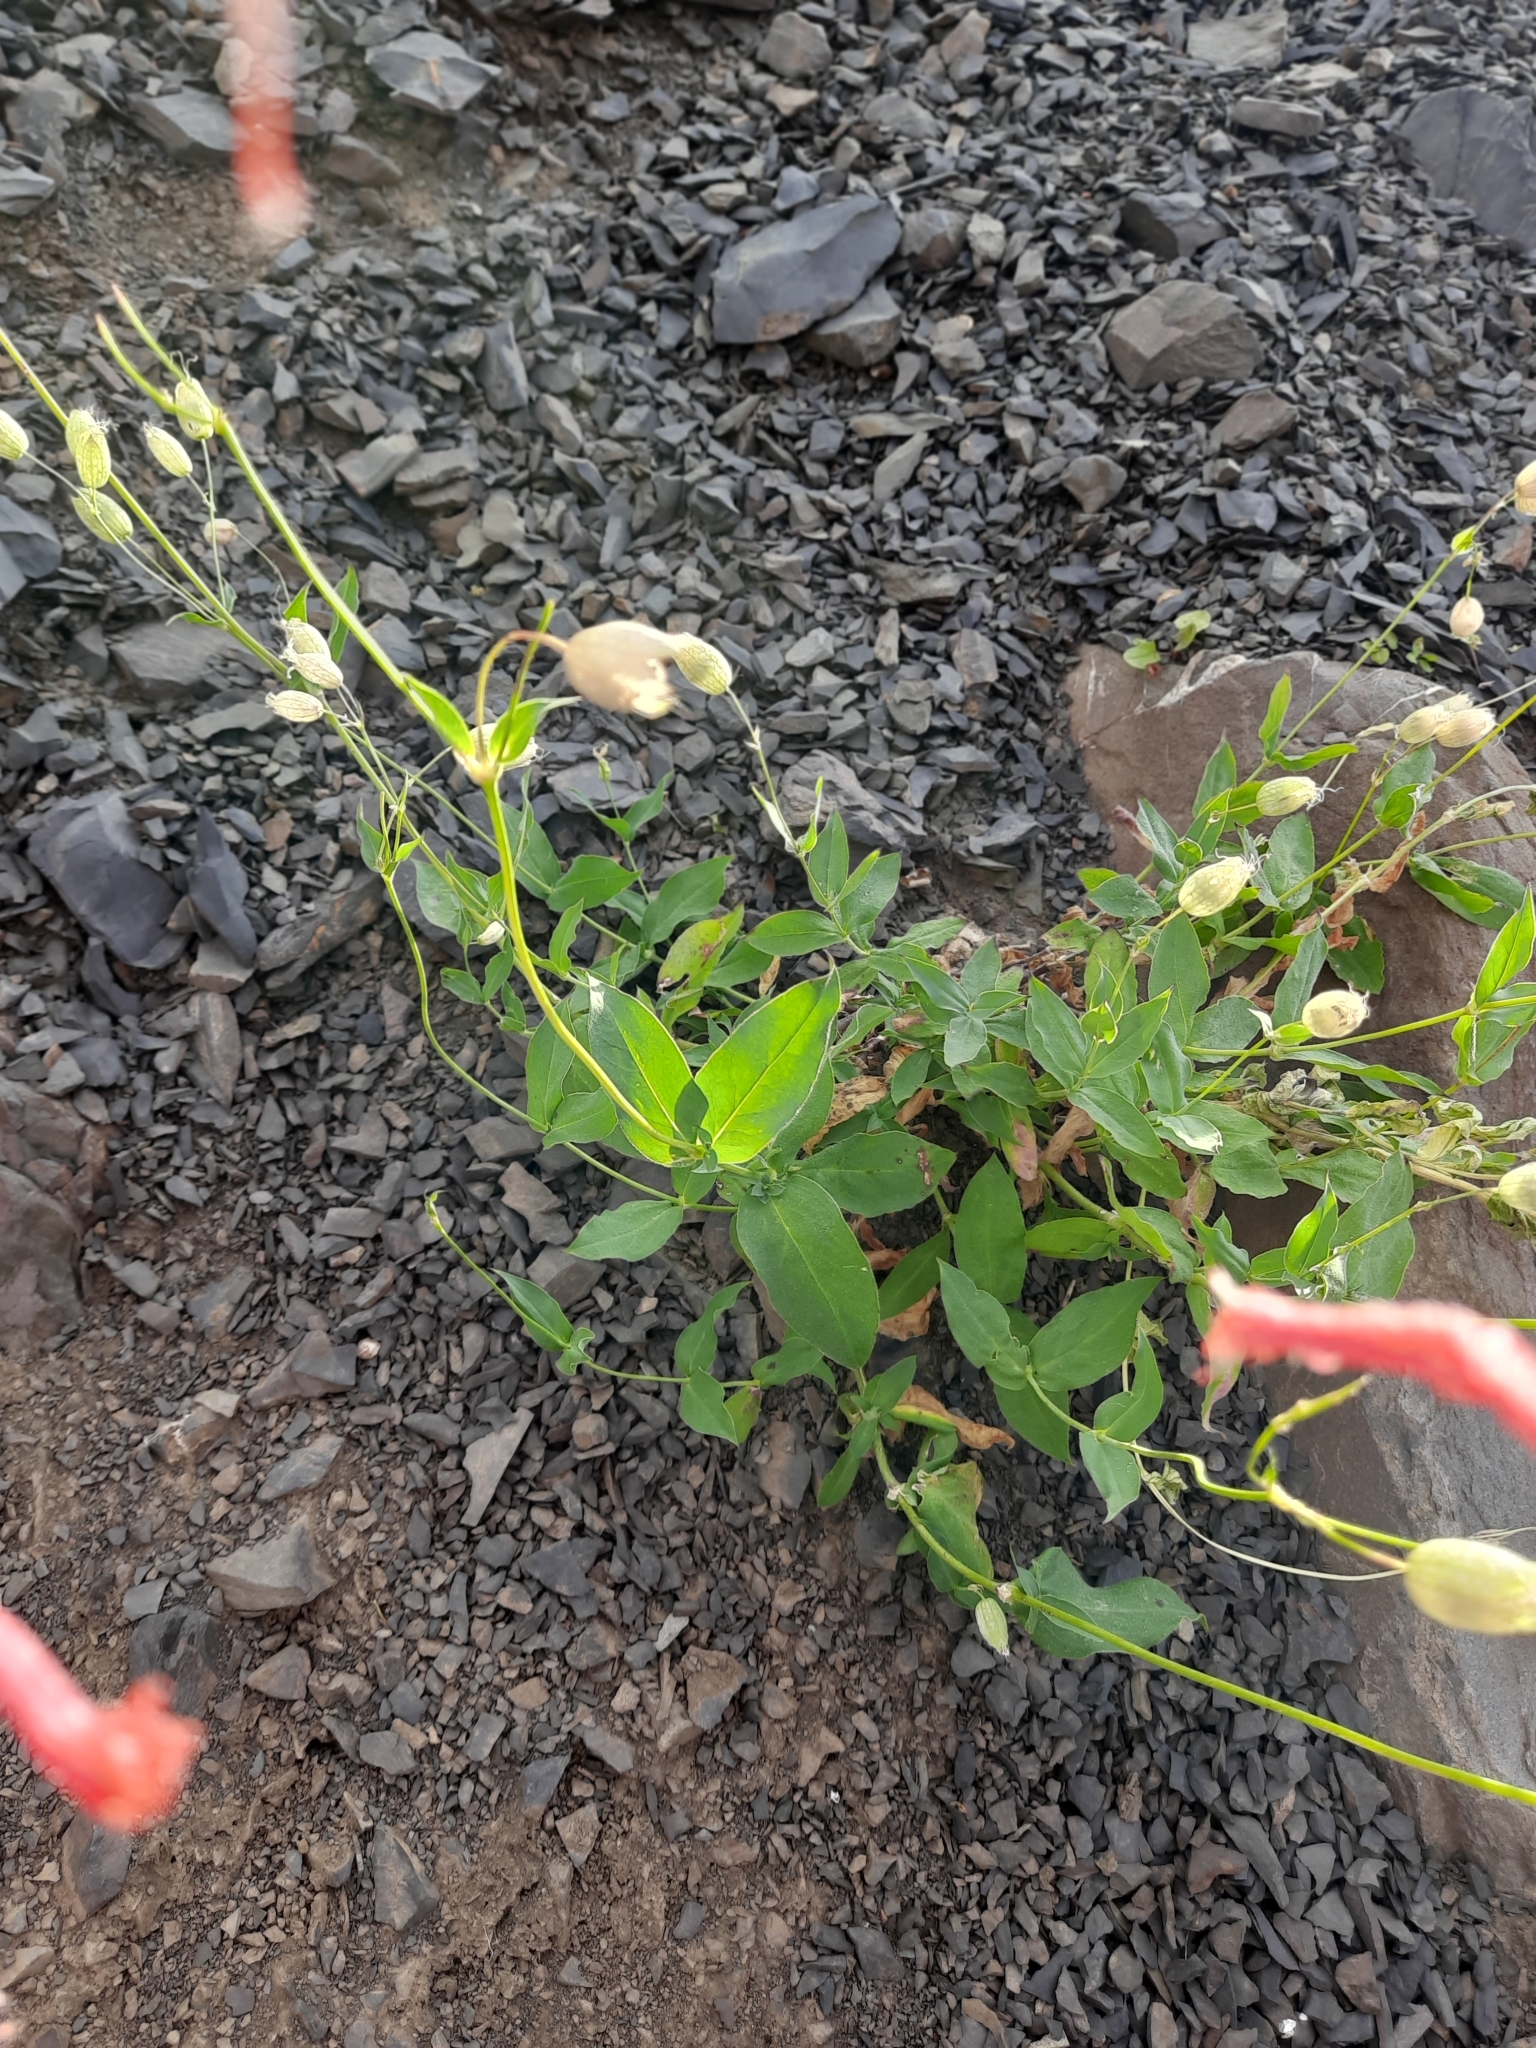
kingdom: Plantae
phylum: Tracheophyta
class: Magnoliopsida
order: Caryophyllales
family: Caryophyllaceae
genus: Silene
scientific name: Silene vulgaris
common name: Bladder campion
